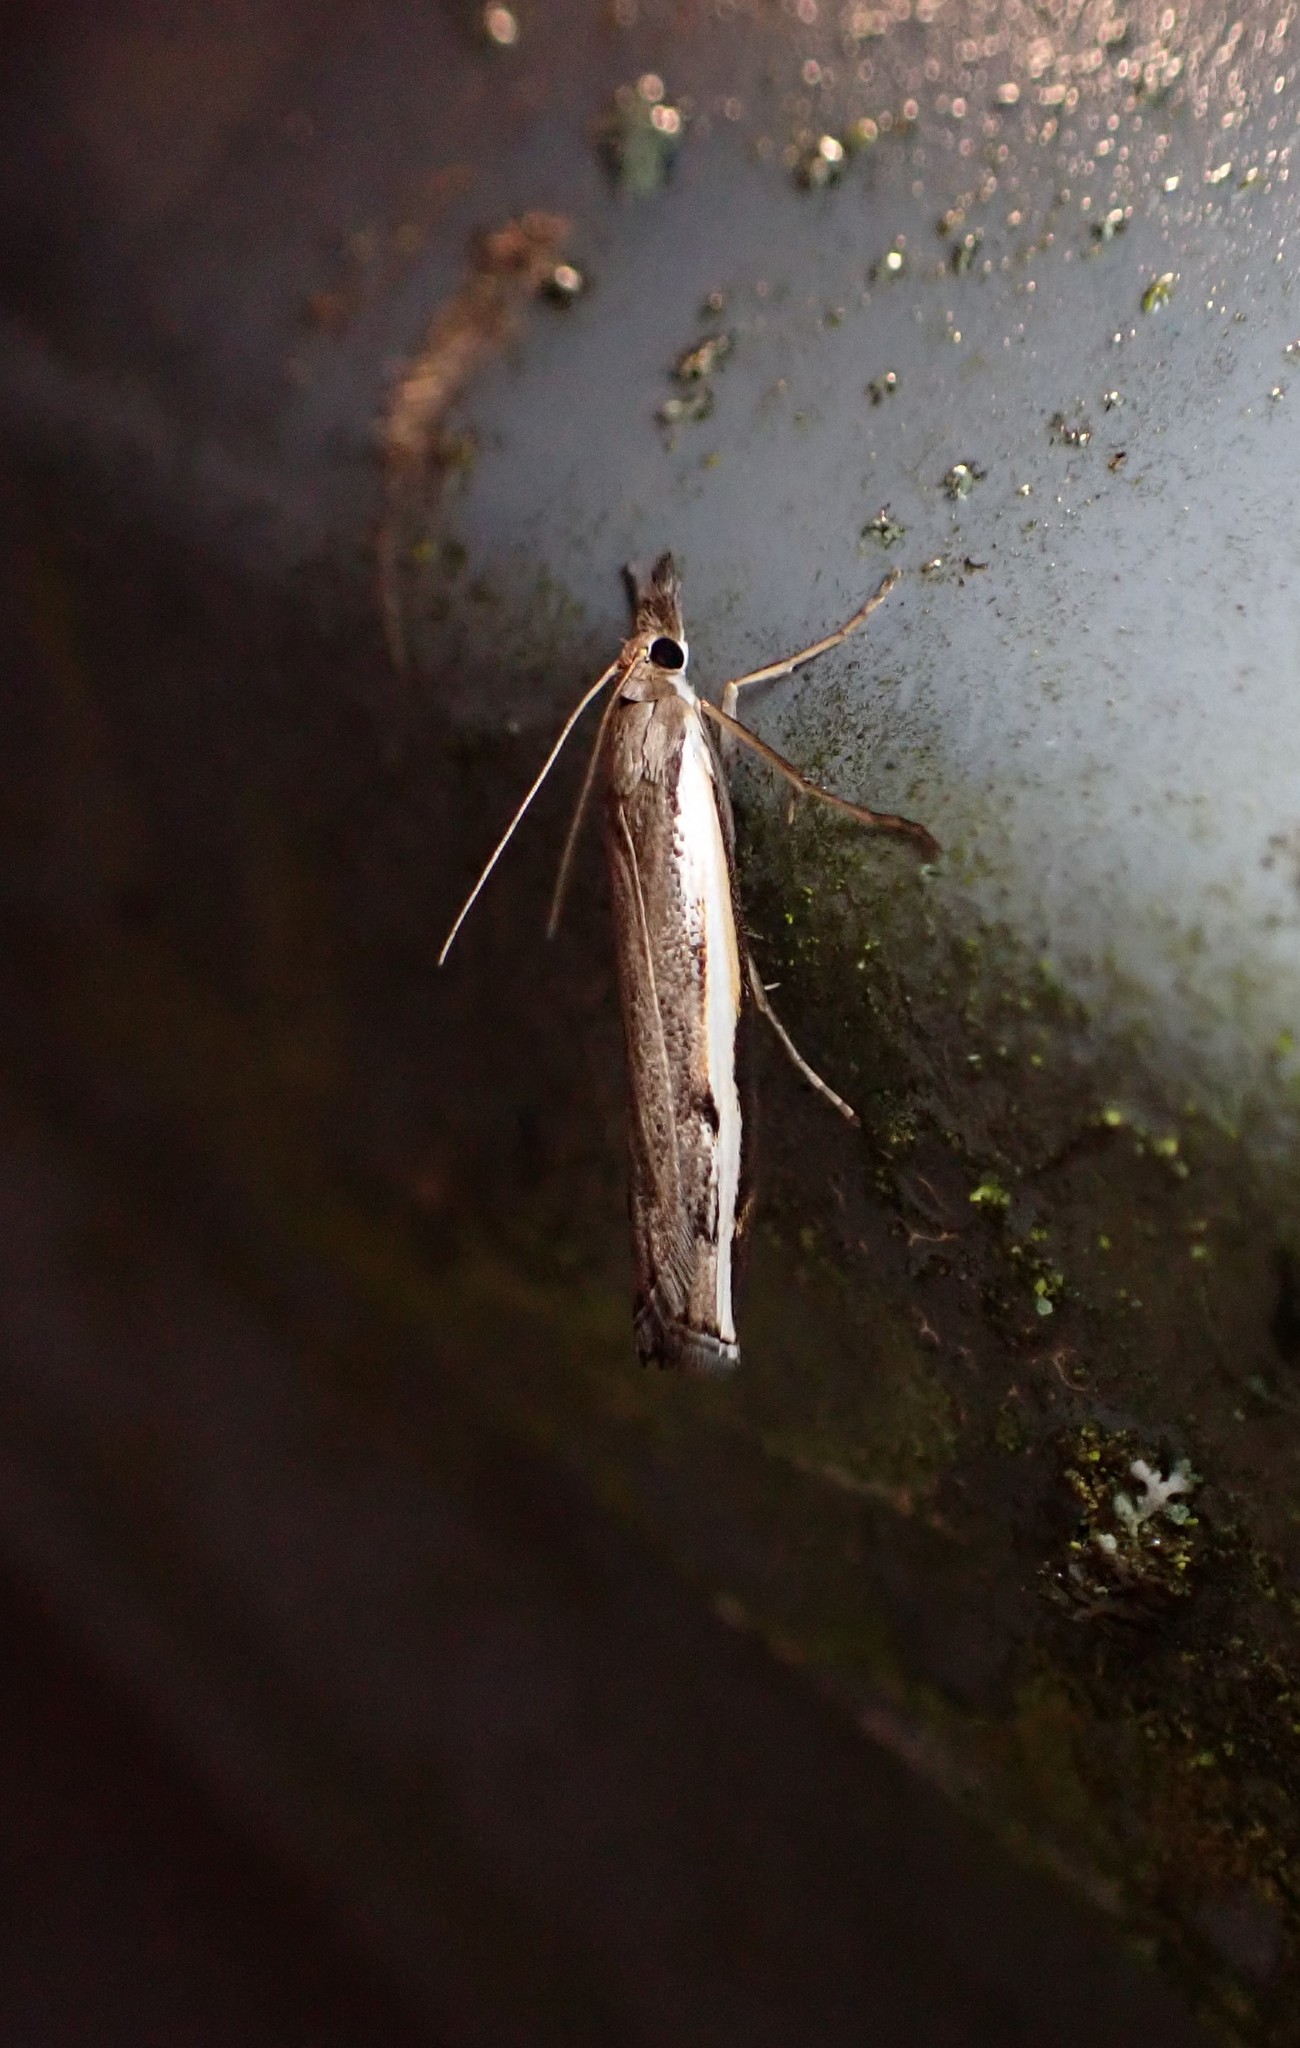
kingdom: Animalia
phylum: Arthropoda
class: Insecta
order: Lepidoptera
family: Crambidae
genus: Orocrambus
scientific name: Orocrambus flexuosellus
